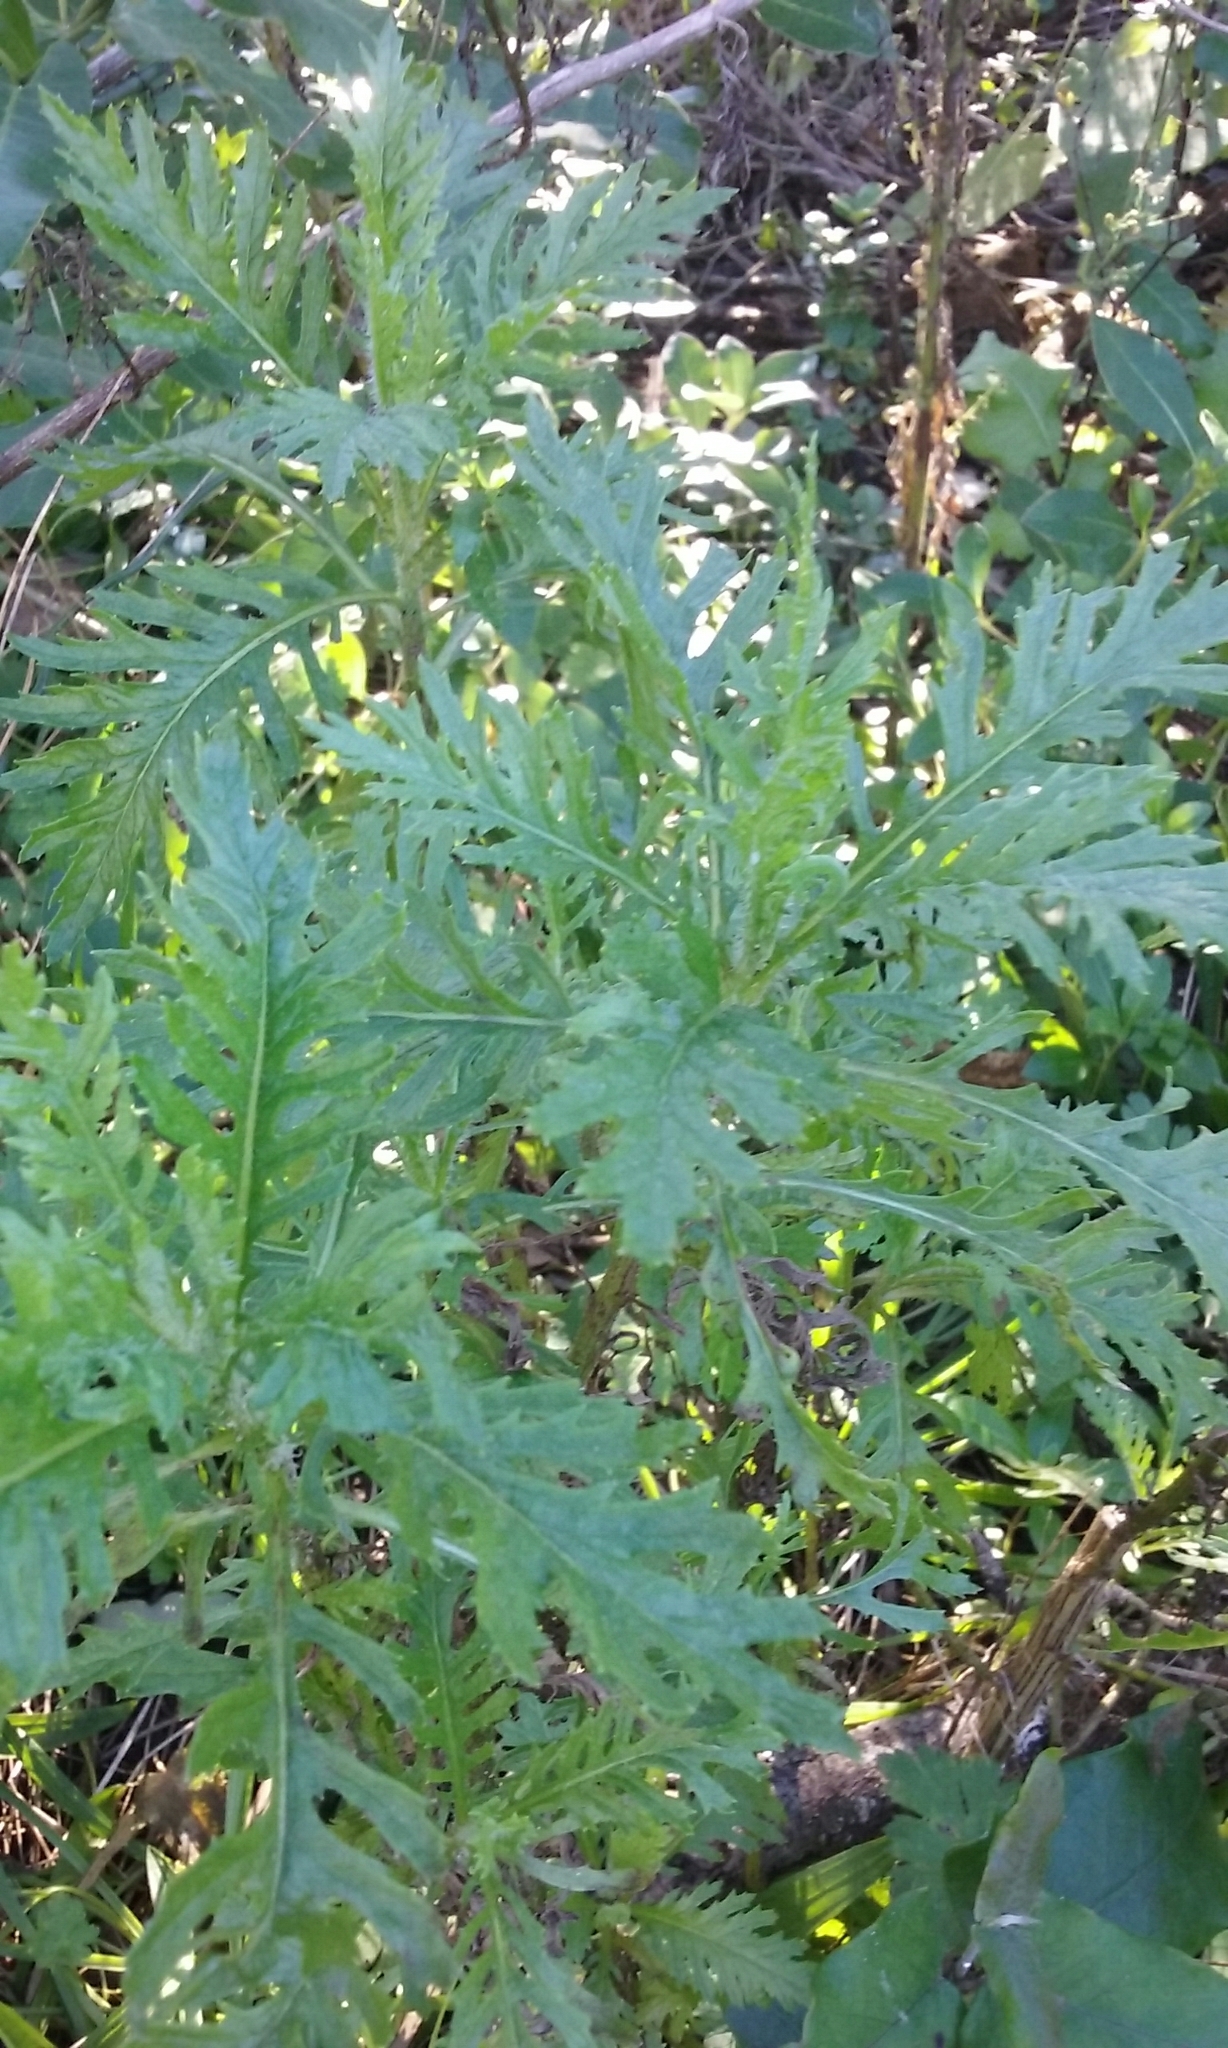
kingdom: Plantae
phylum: Tracheophyta
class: Magnoliopsida
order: Asterales
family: Asteraceae
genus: Senecio
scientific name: Senecio esleri
